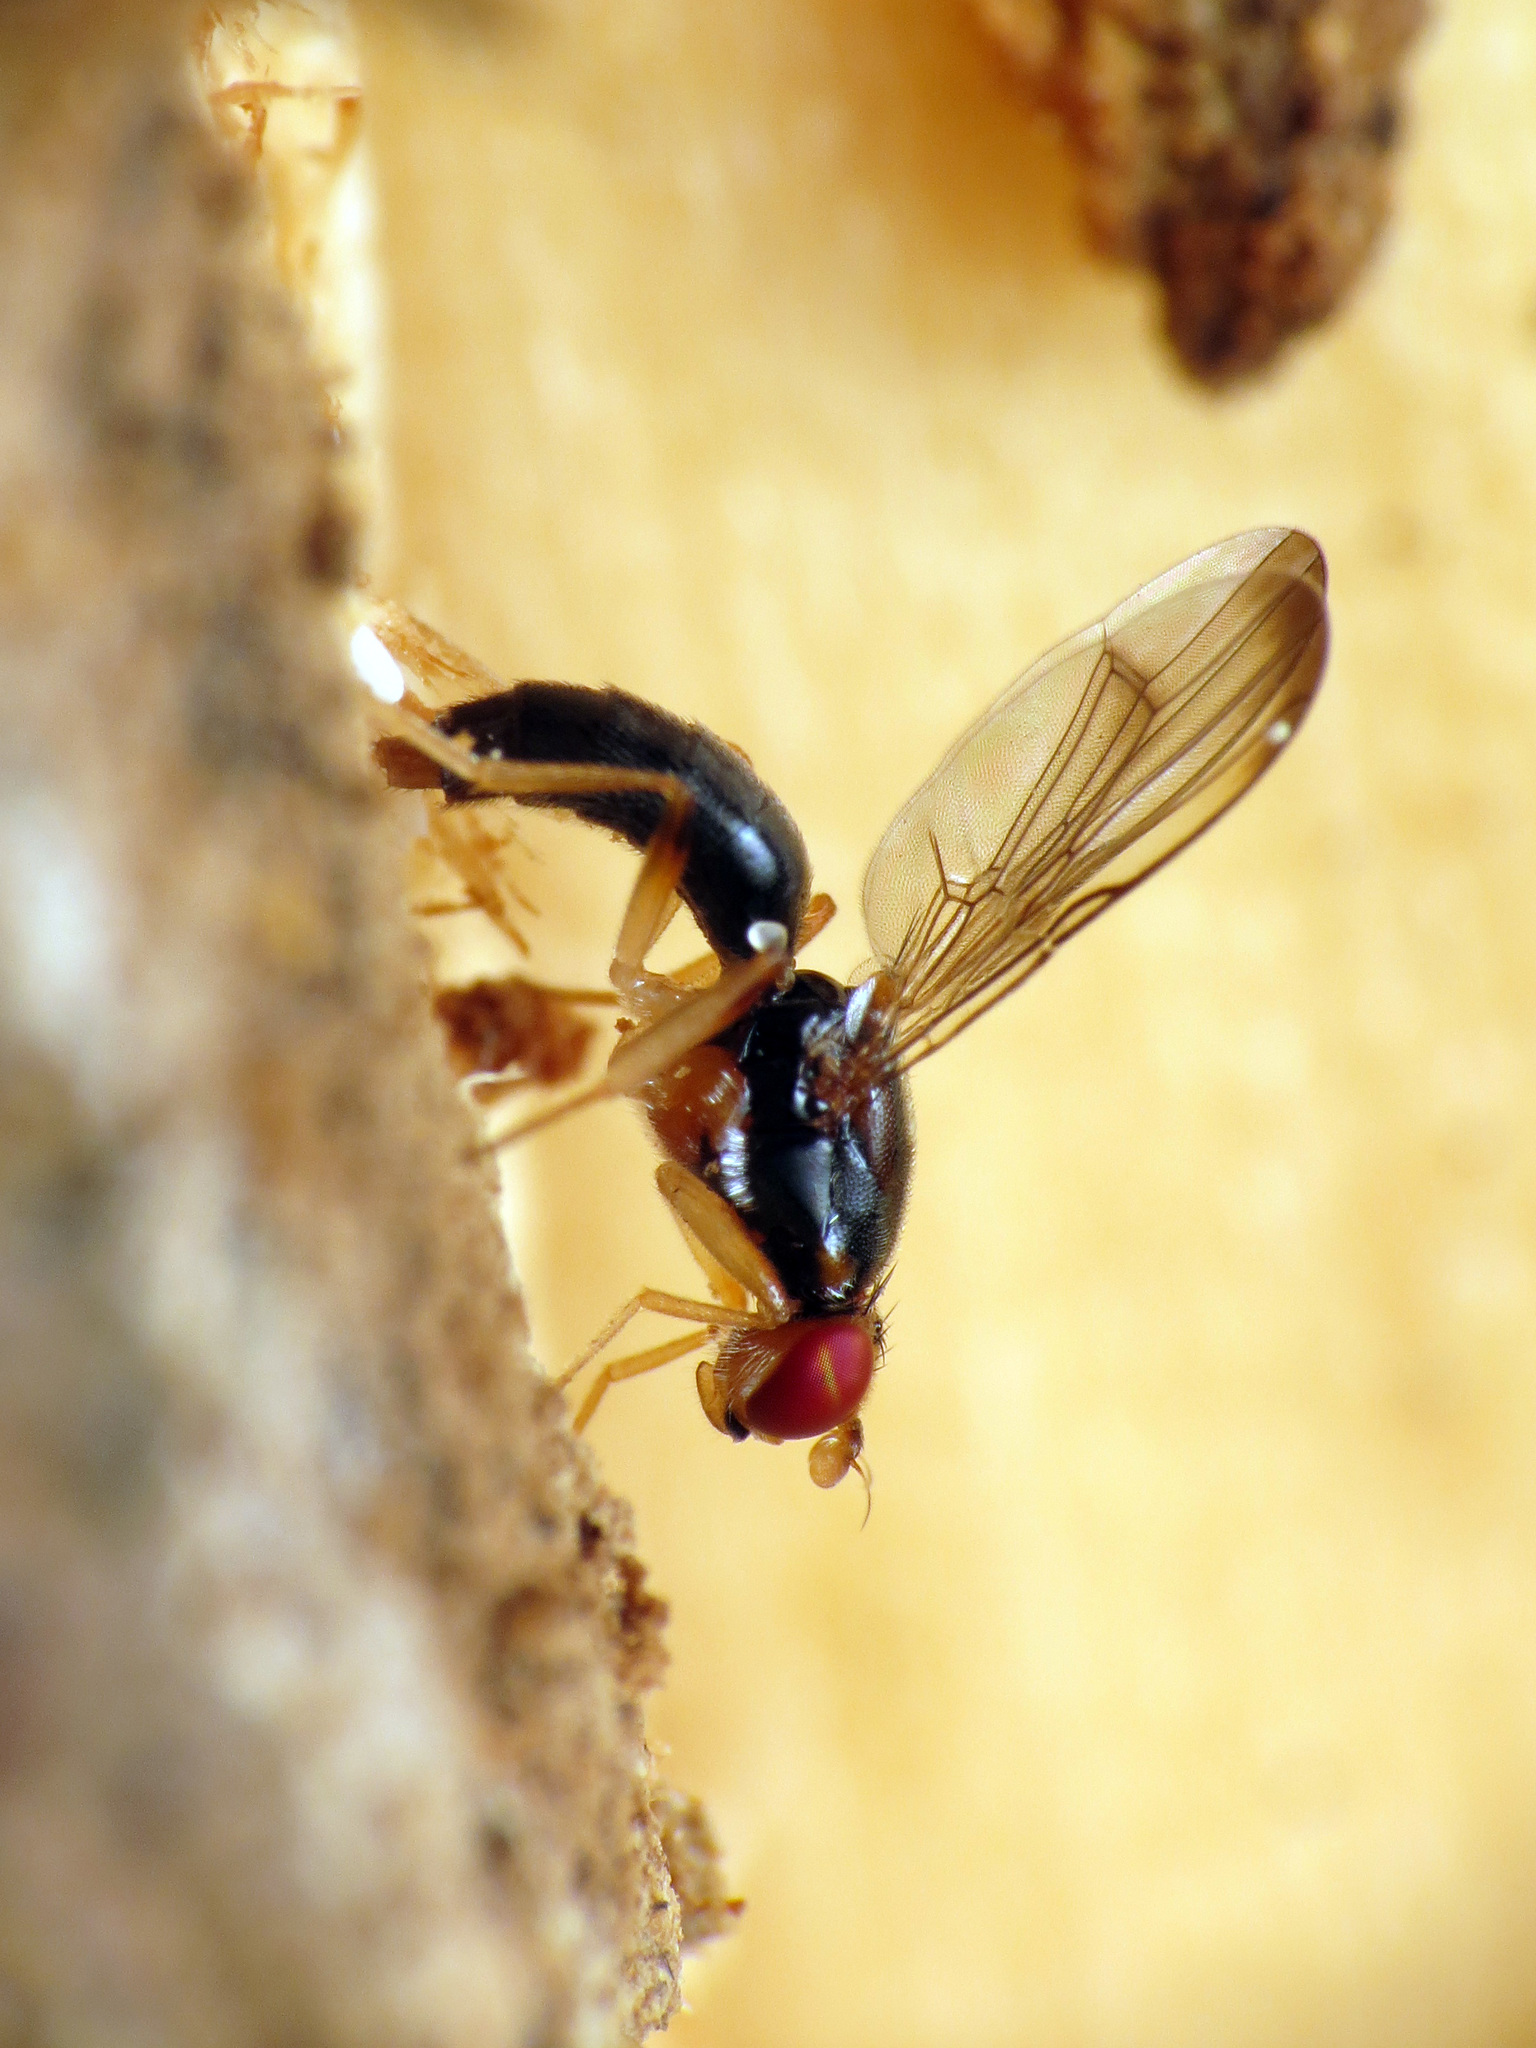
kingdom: Animalia
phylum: Arthropoda
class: Insecta
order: Diptera
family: Psilidae
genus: Chyliza
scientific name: Chyliza notata
